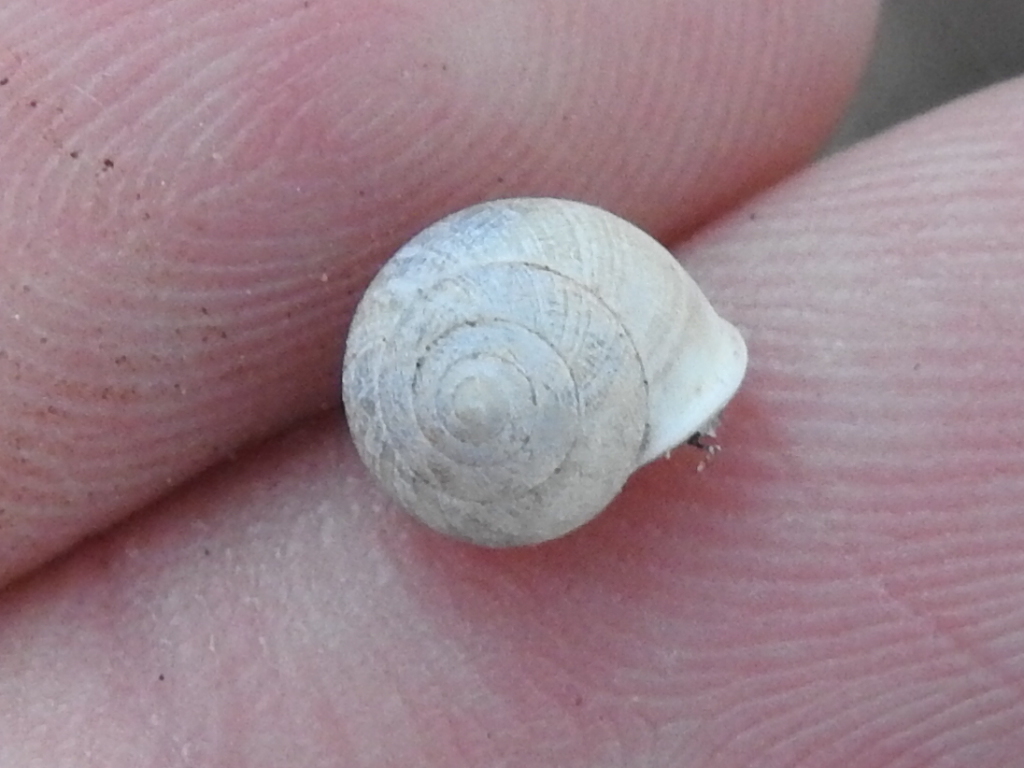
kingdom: Animalia
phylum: Mollusca
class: Gastropoda
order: Cycloneritida
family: Helicinidae
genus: Helicina
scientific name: Helicina orbiculata
